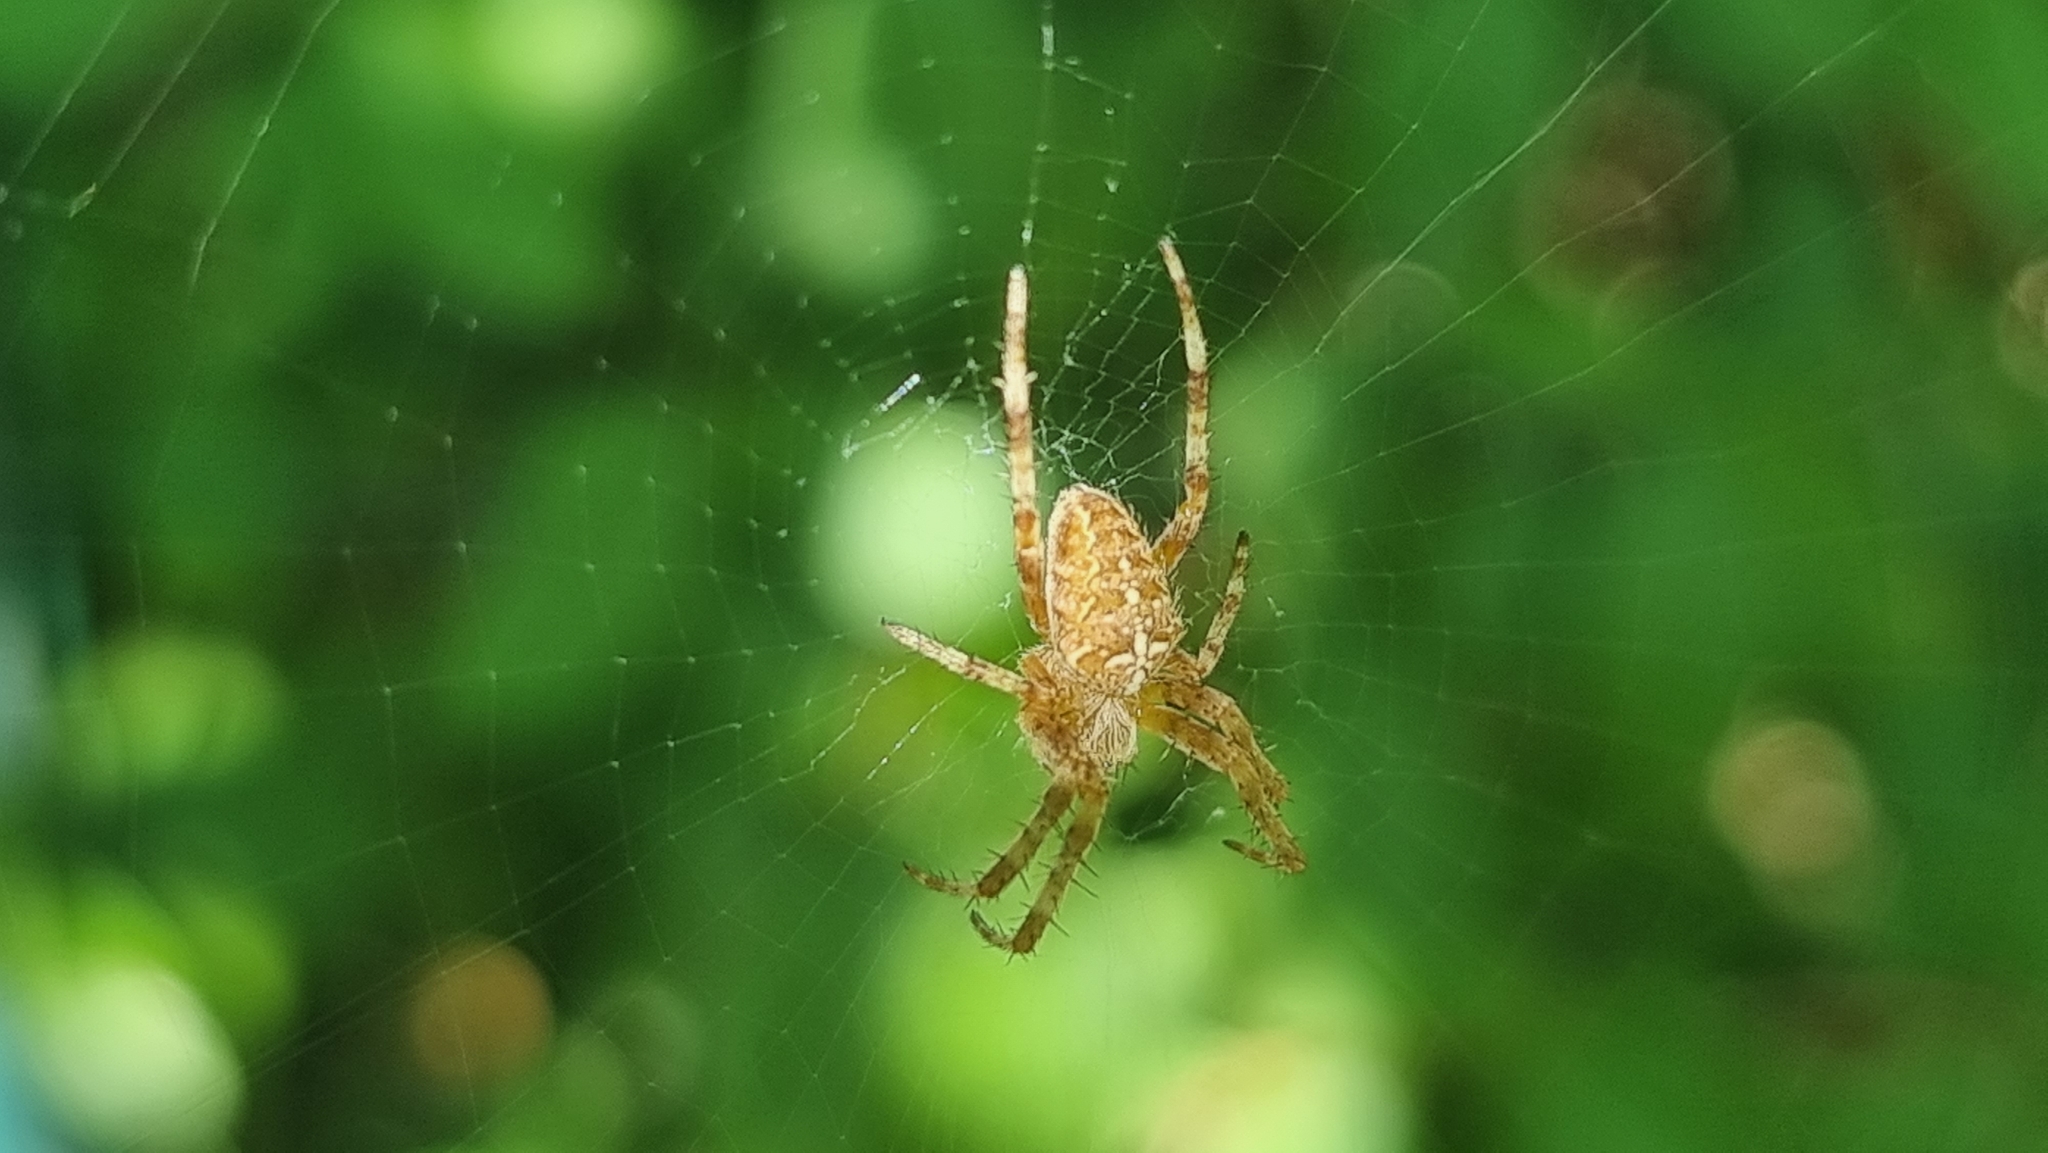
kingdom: Animalia
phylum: Arthropoda
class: Arachnida
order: Araneae
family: Araneidae
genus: Araneus
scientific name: Araneus diadematus
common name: Cross orbweaver
